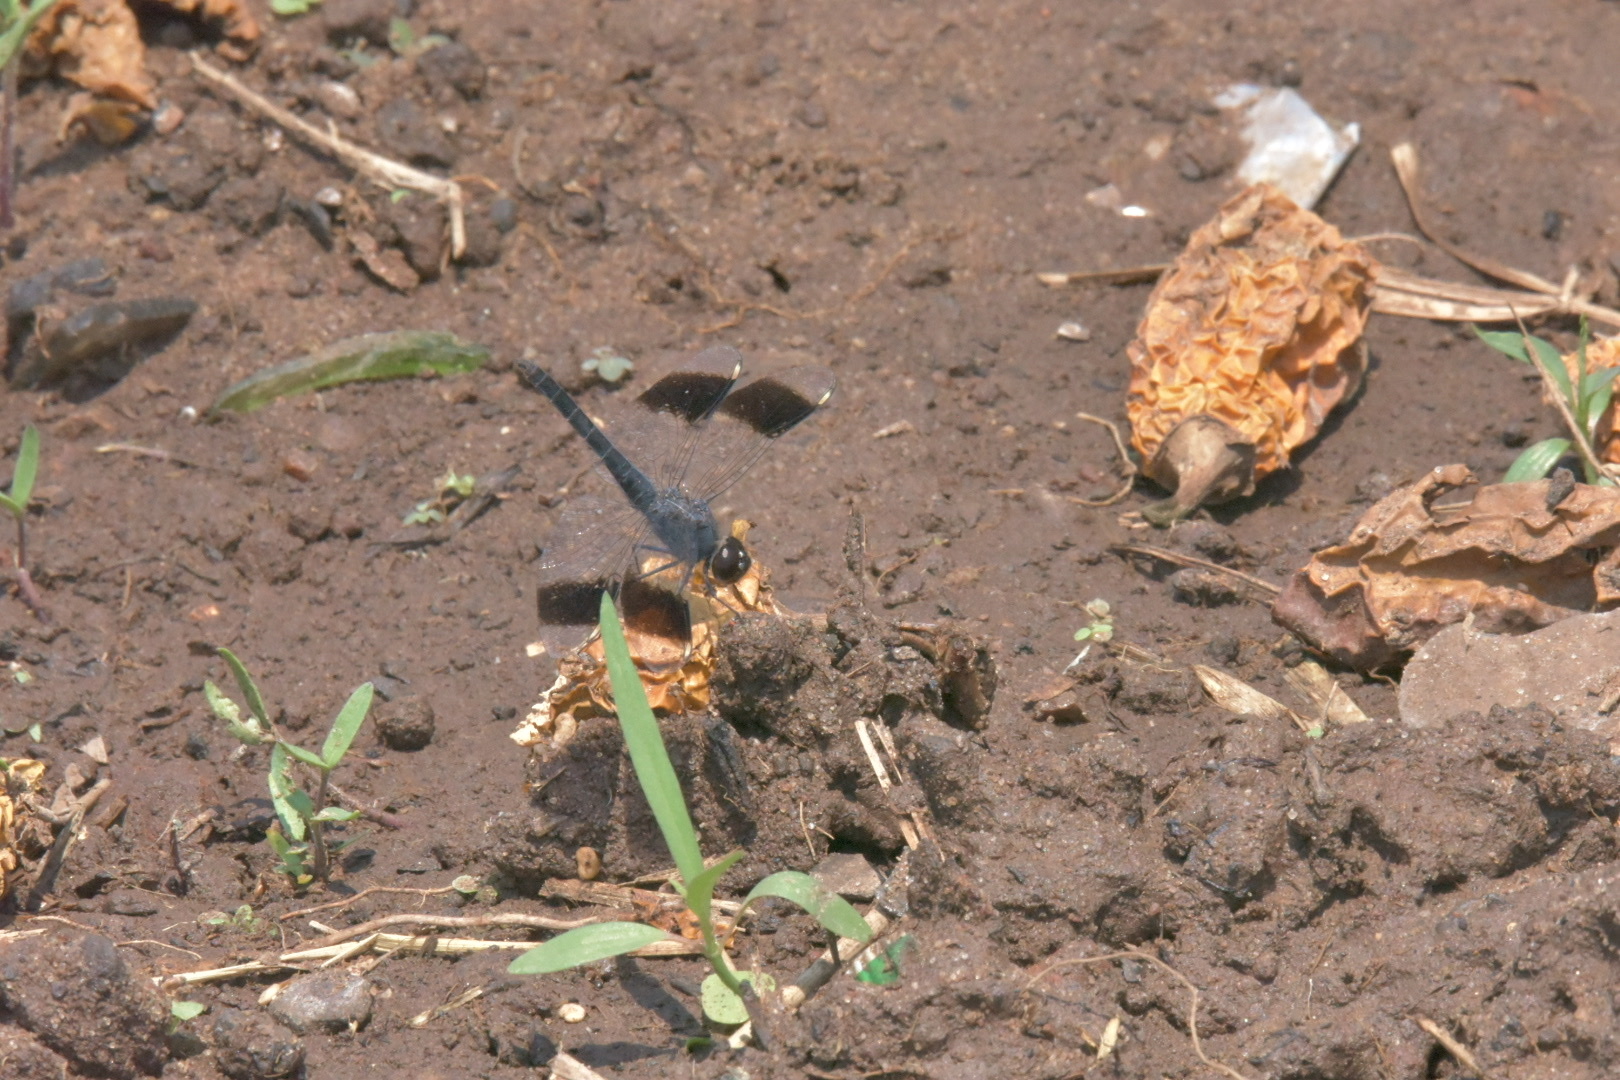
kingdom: Animalia
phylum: Arthropoda
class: Insecta
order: Odonata
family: Libellulidae
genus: Brachythemis
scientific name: Brachythemis leucosticta
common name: Banded groundling
